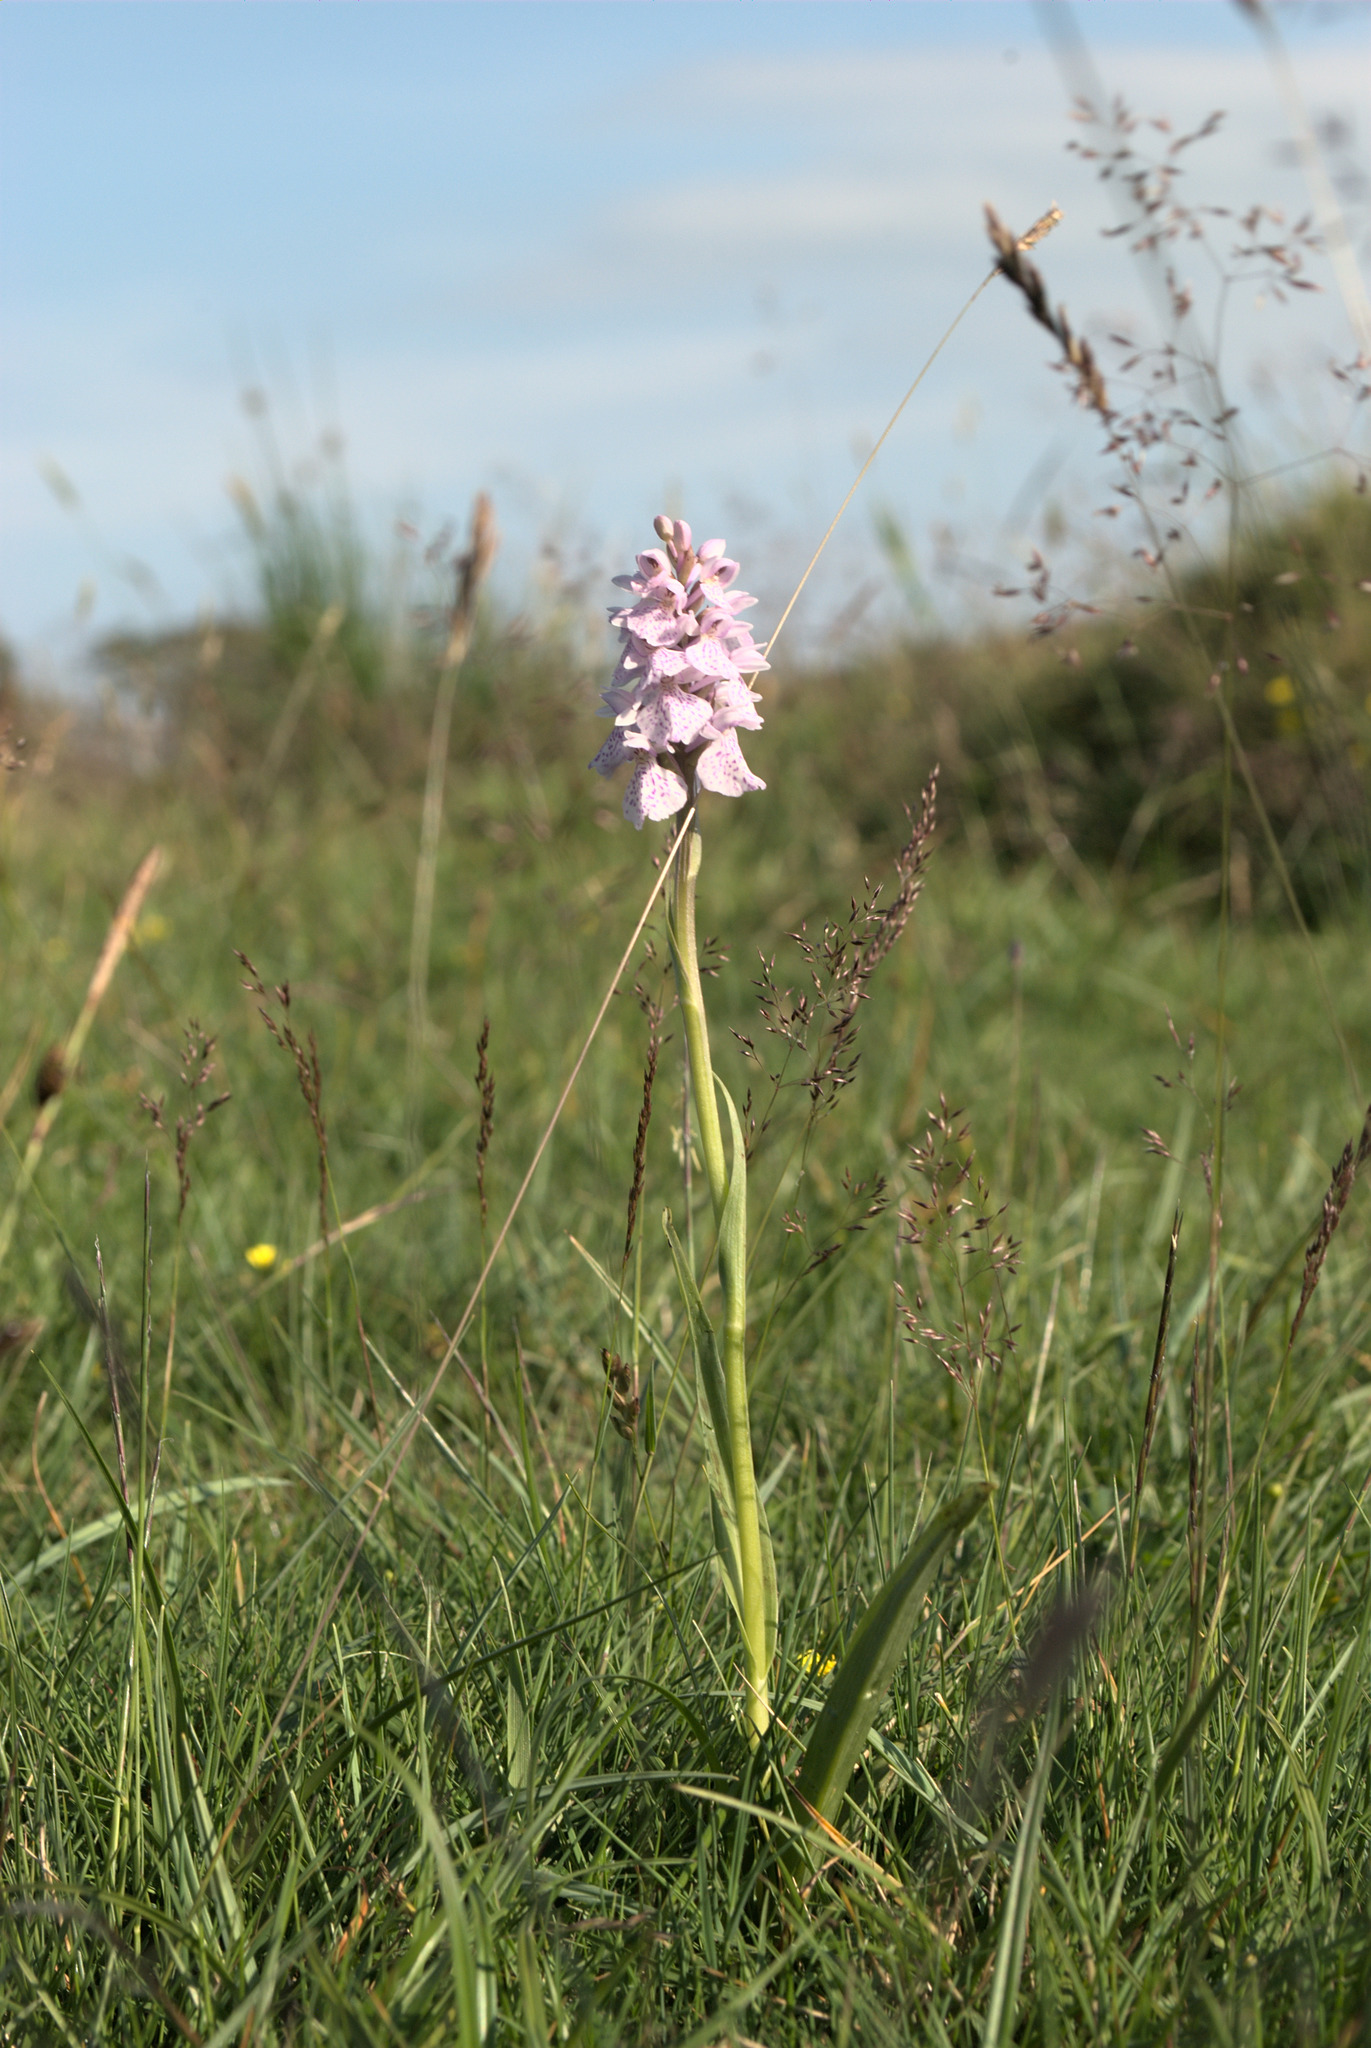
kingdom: Plantae
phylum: Tracheophyta
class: Liliopsida
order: Asparagales
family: Orchidaceae
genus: Dactylorhiza
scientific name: Dactylorhiza maculata
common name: Heath spotted-orchid
